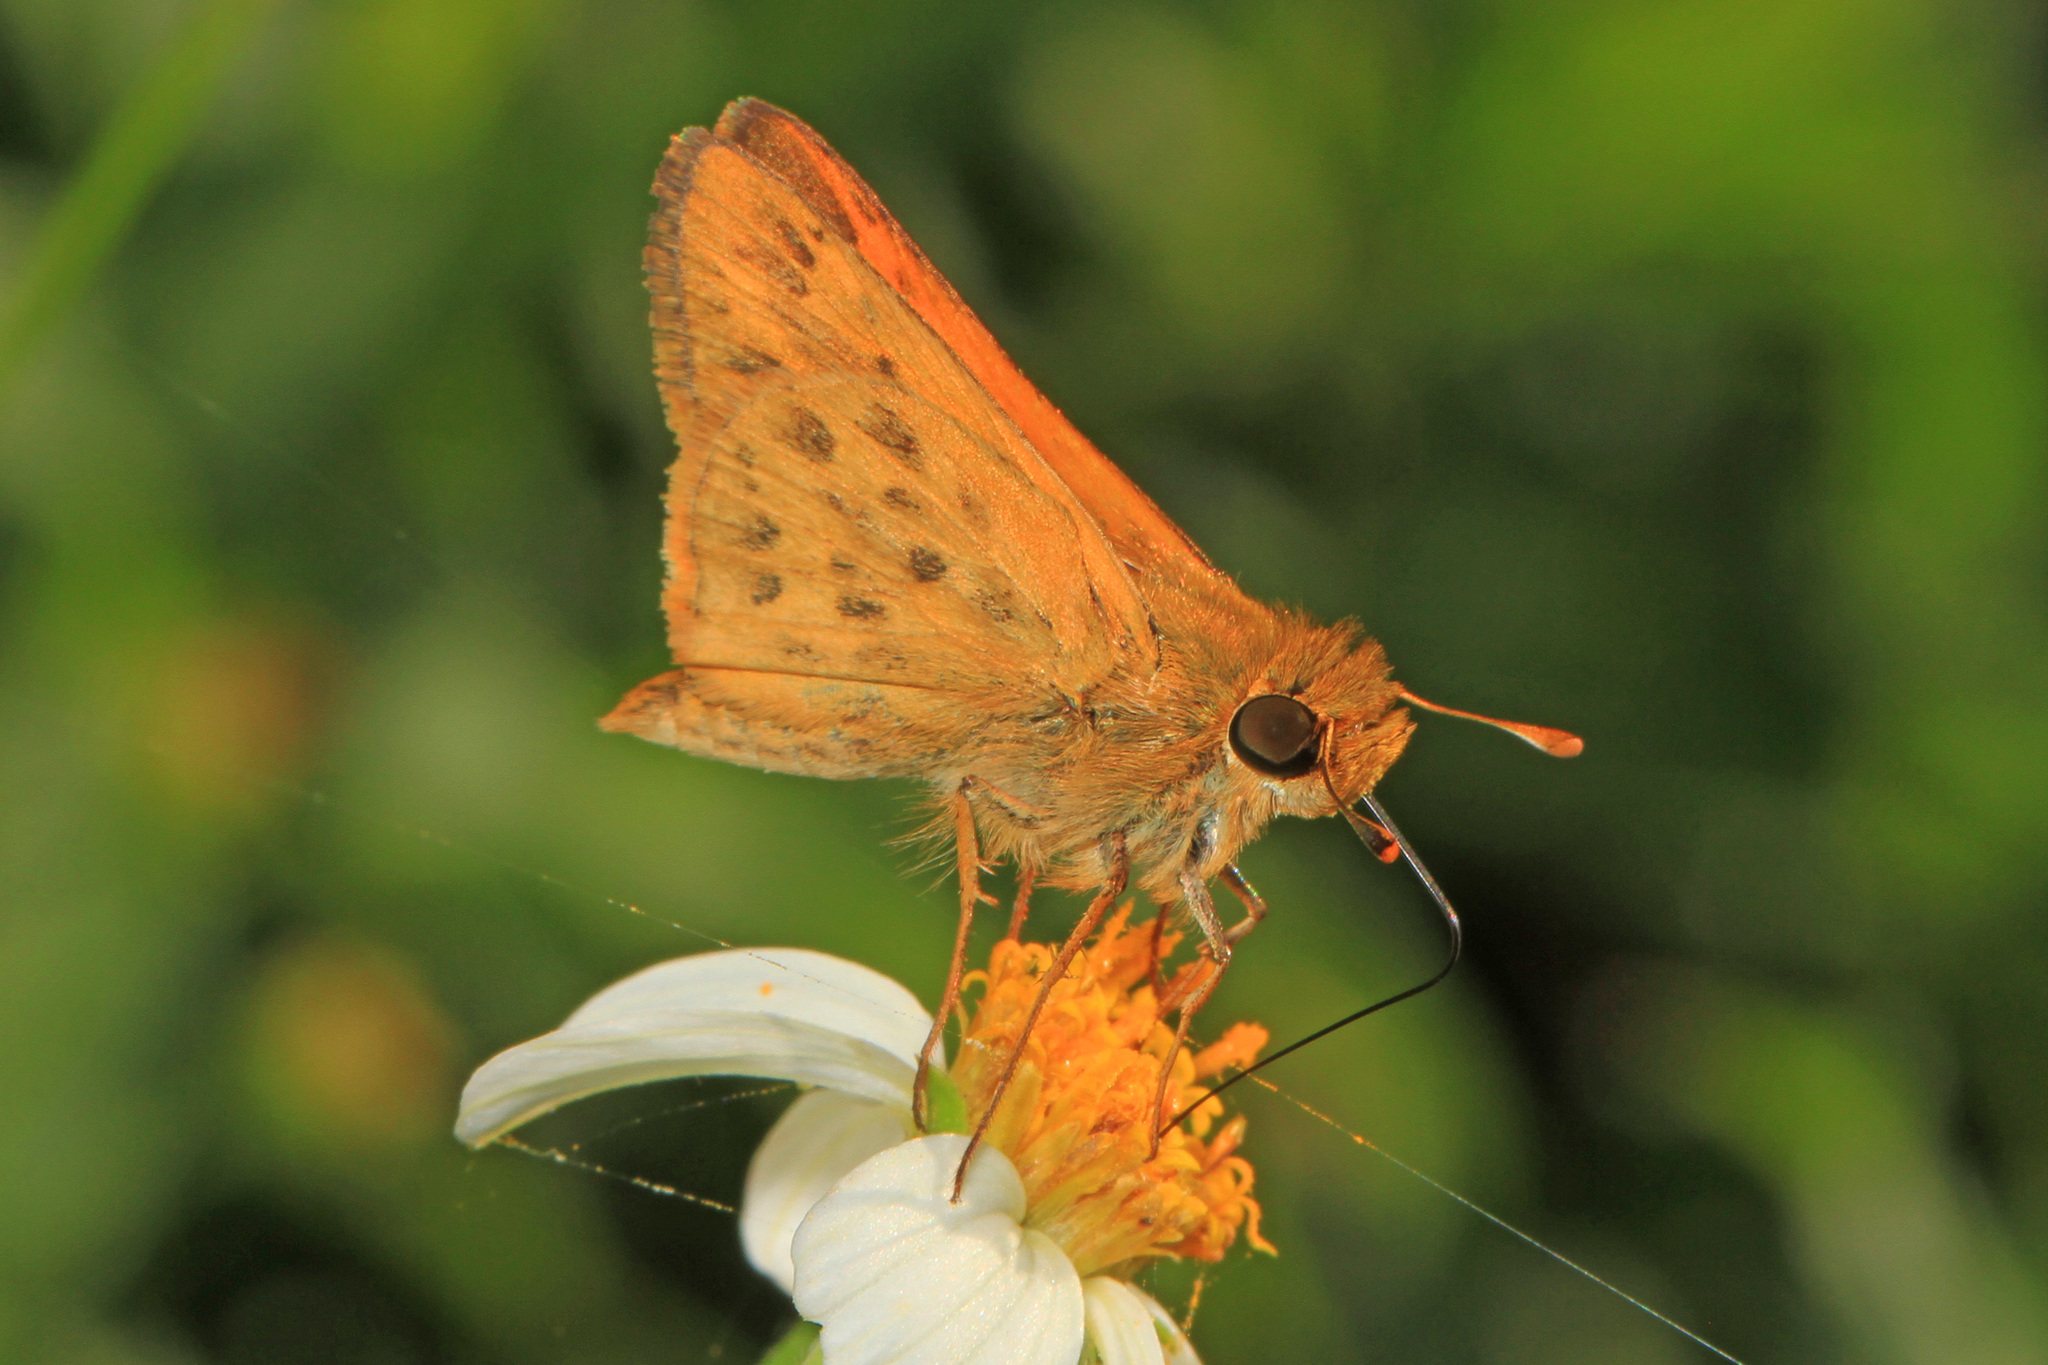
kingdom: Animalia
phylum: Arthropoda
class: Insecta
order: Lepidoptera
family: Hesperiidae
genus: Hylephila
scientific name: Hylephila phyleus
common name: Fiery skipper
